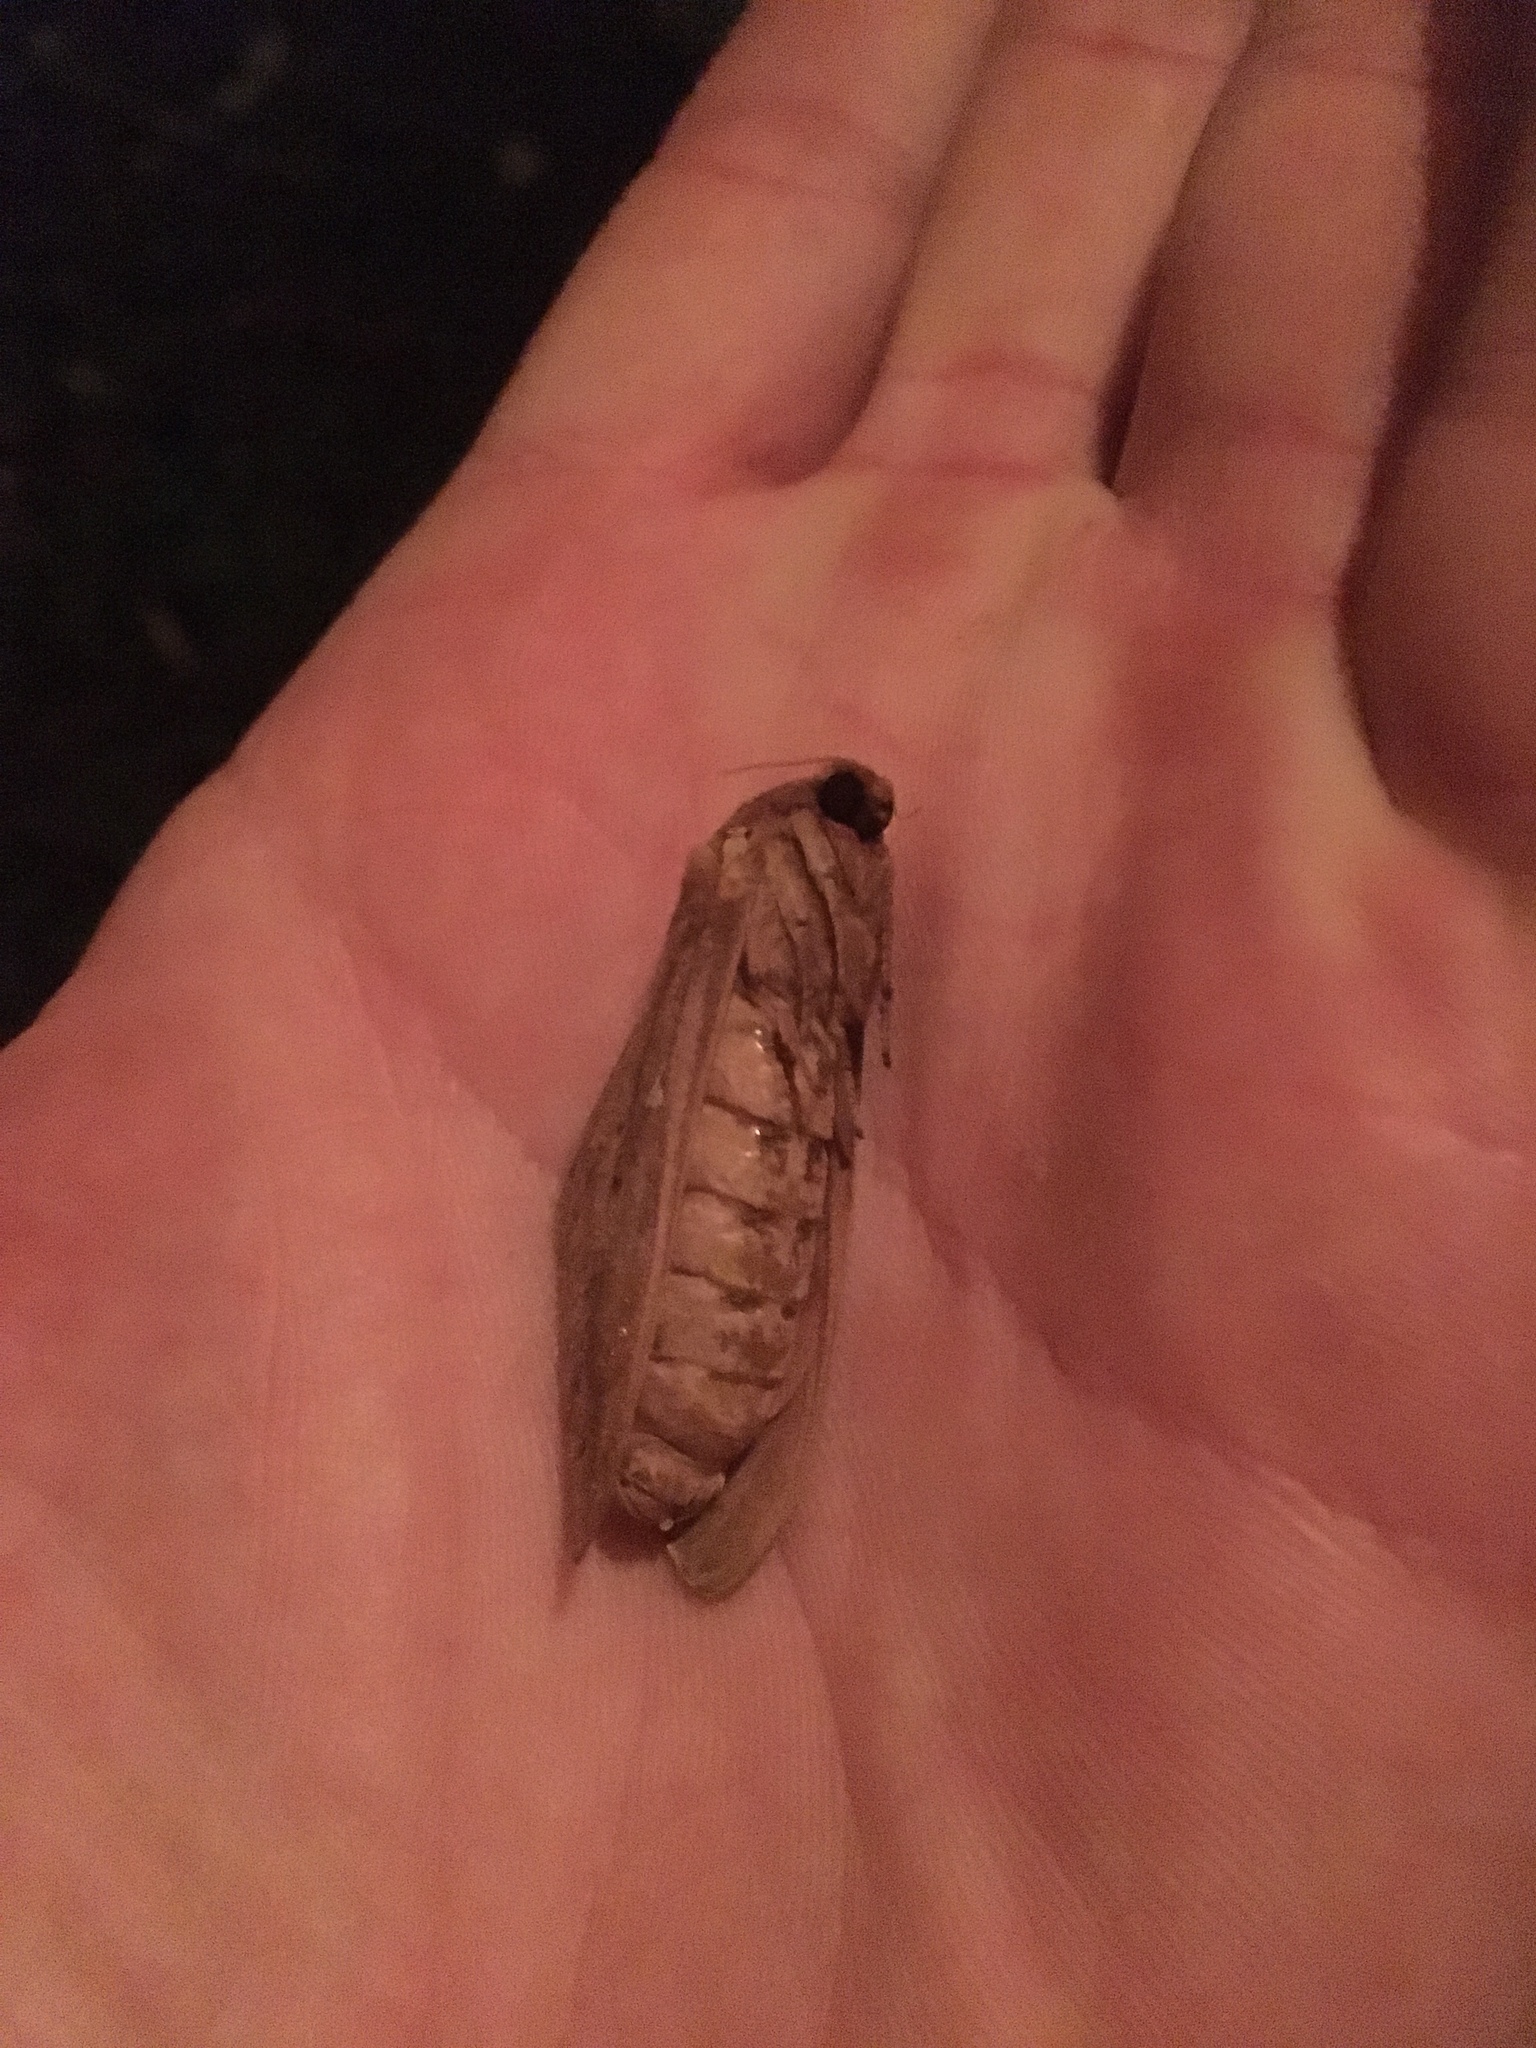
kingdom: Animalia
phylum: Arthropoda
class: Insecta
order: Lepidoptera
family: Hepialidae
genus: Wiseana
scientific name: Wiseana cervinata
